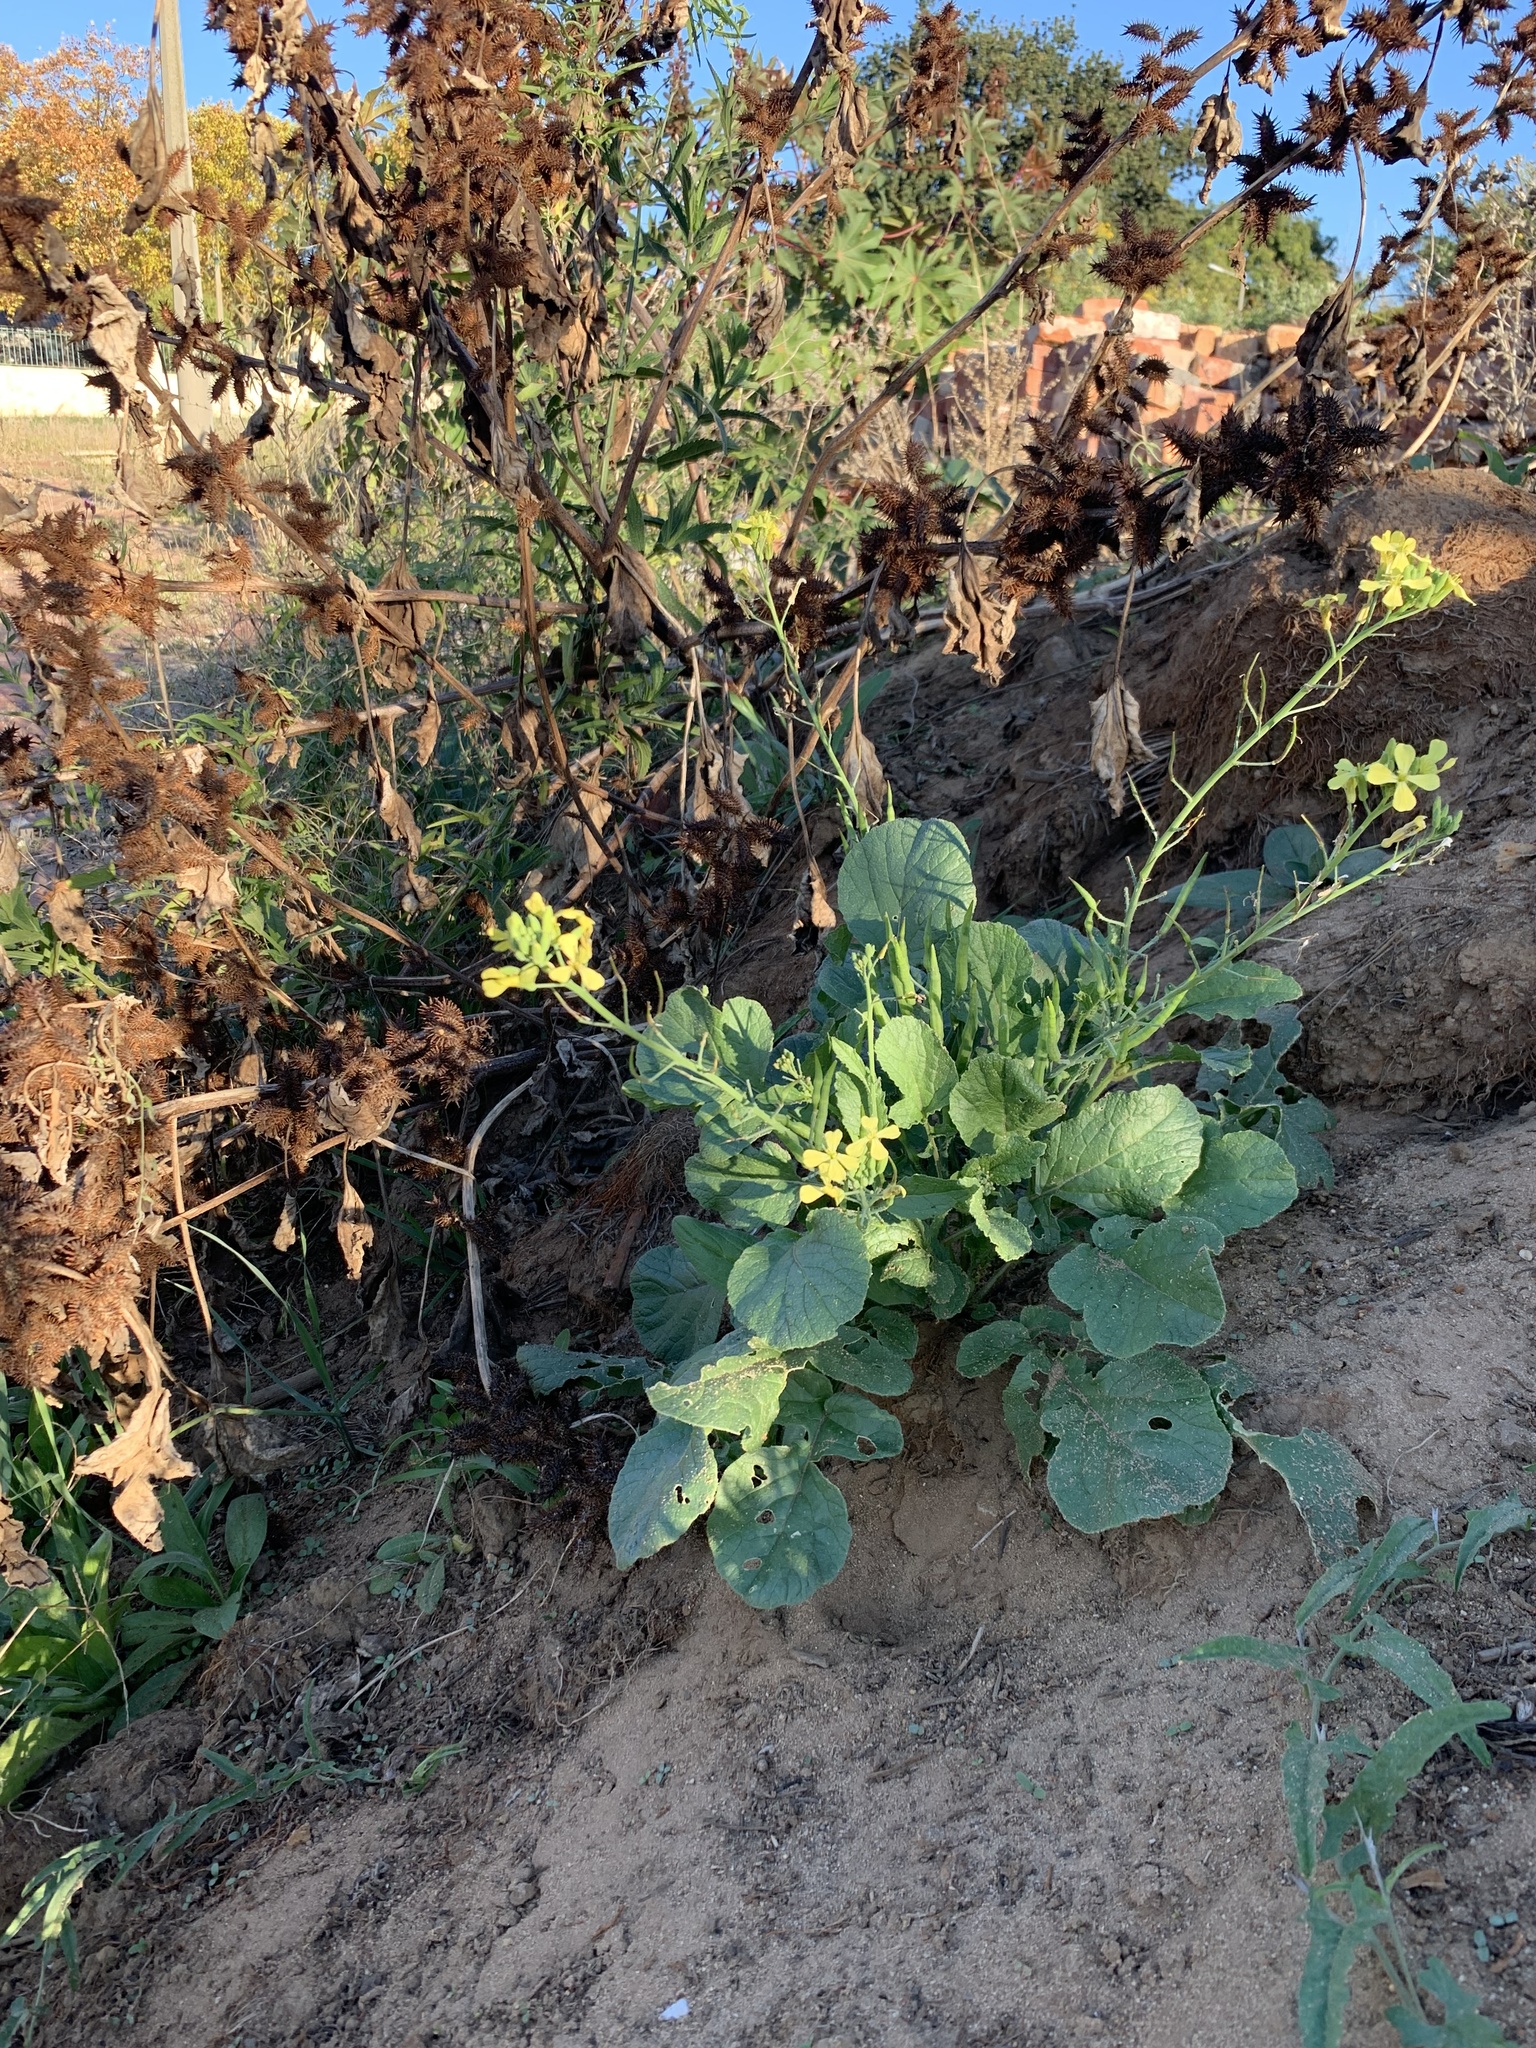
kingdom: Plantae
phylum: Tracheophyta
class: Magnoliopsida
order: Brassicales
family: Brassicaceae
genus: Raphanus
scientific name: Raphanus raphanistrum
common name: Wild radish
